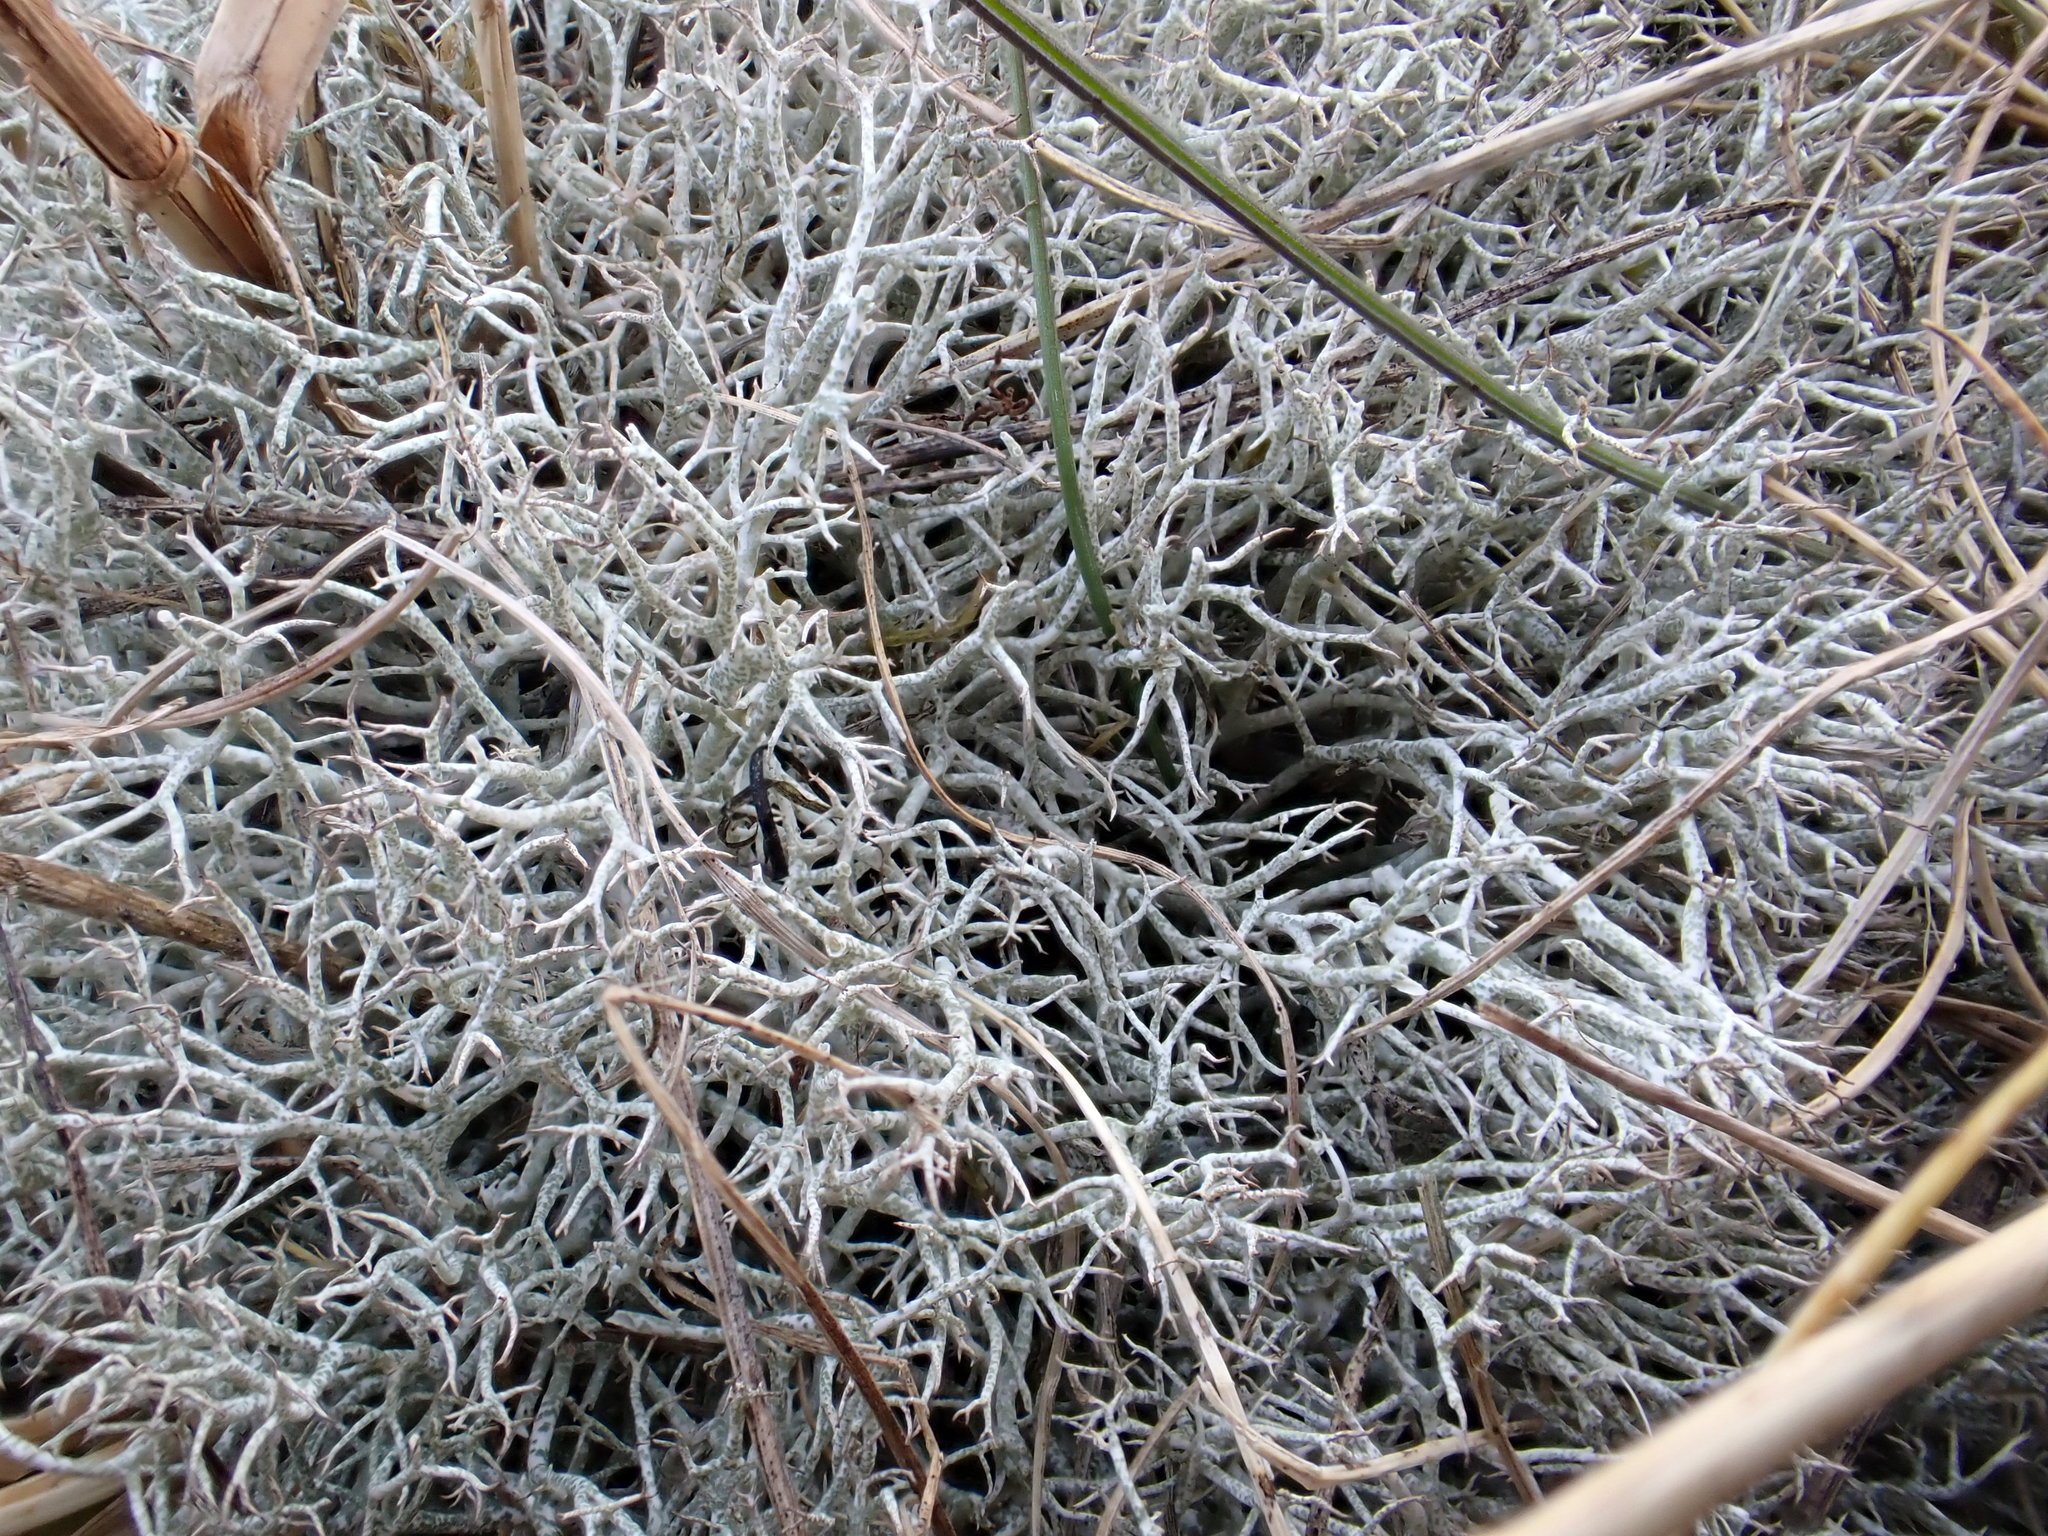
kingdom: Fungi
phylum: Ascomycota
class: Lecanoromycetes
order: Lecanorales
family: Cladoniaceae
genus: Cladonia
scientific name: Cladonia rangiformis
